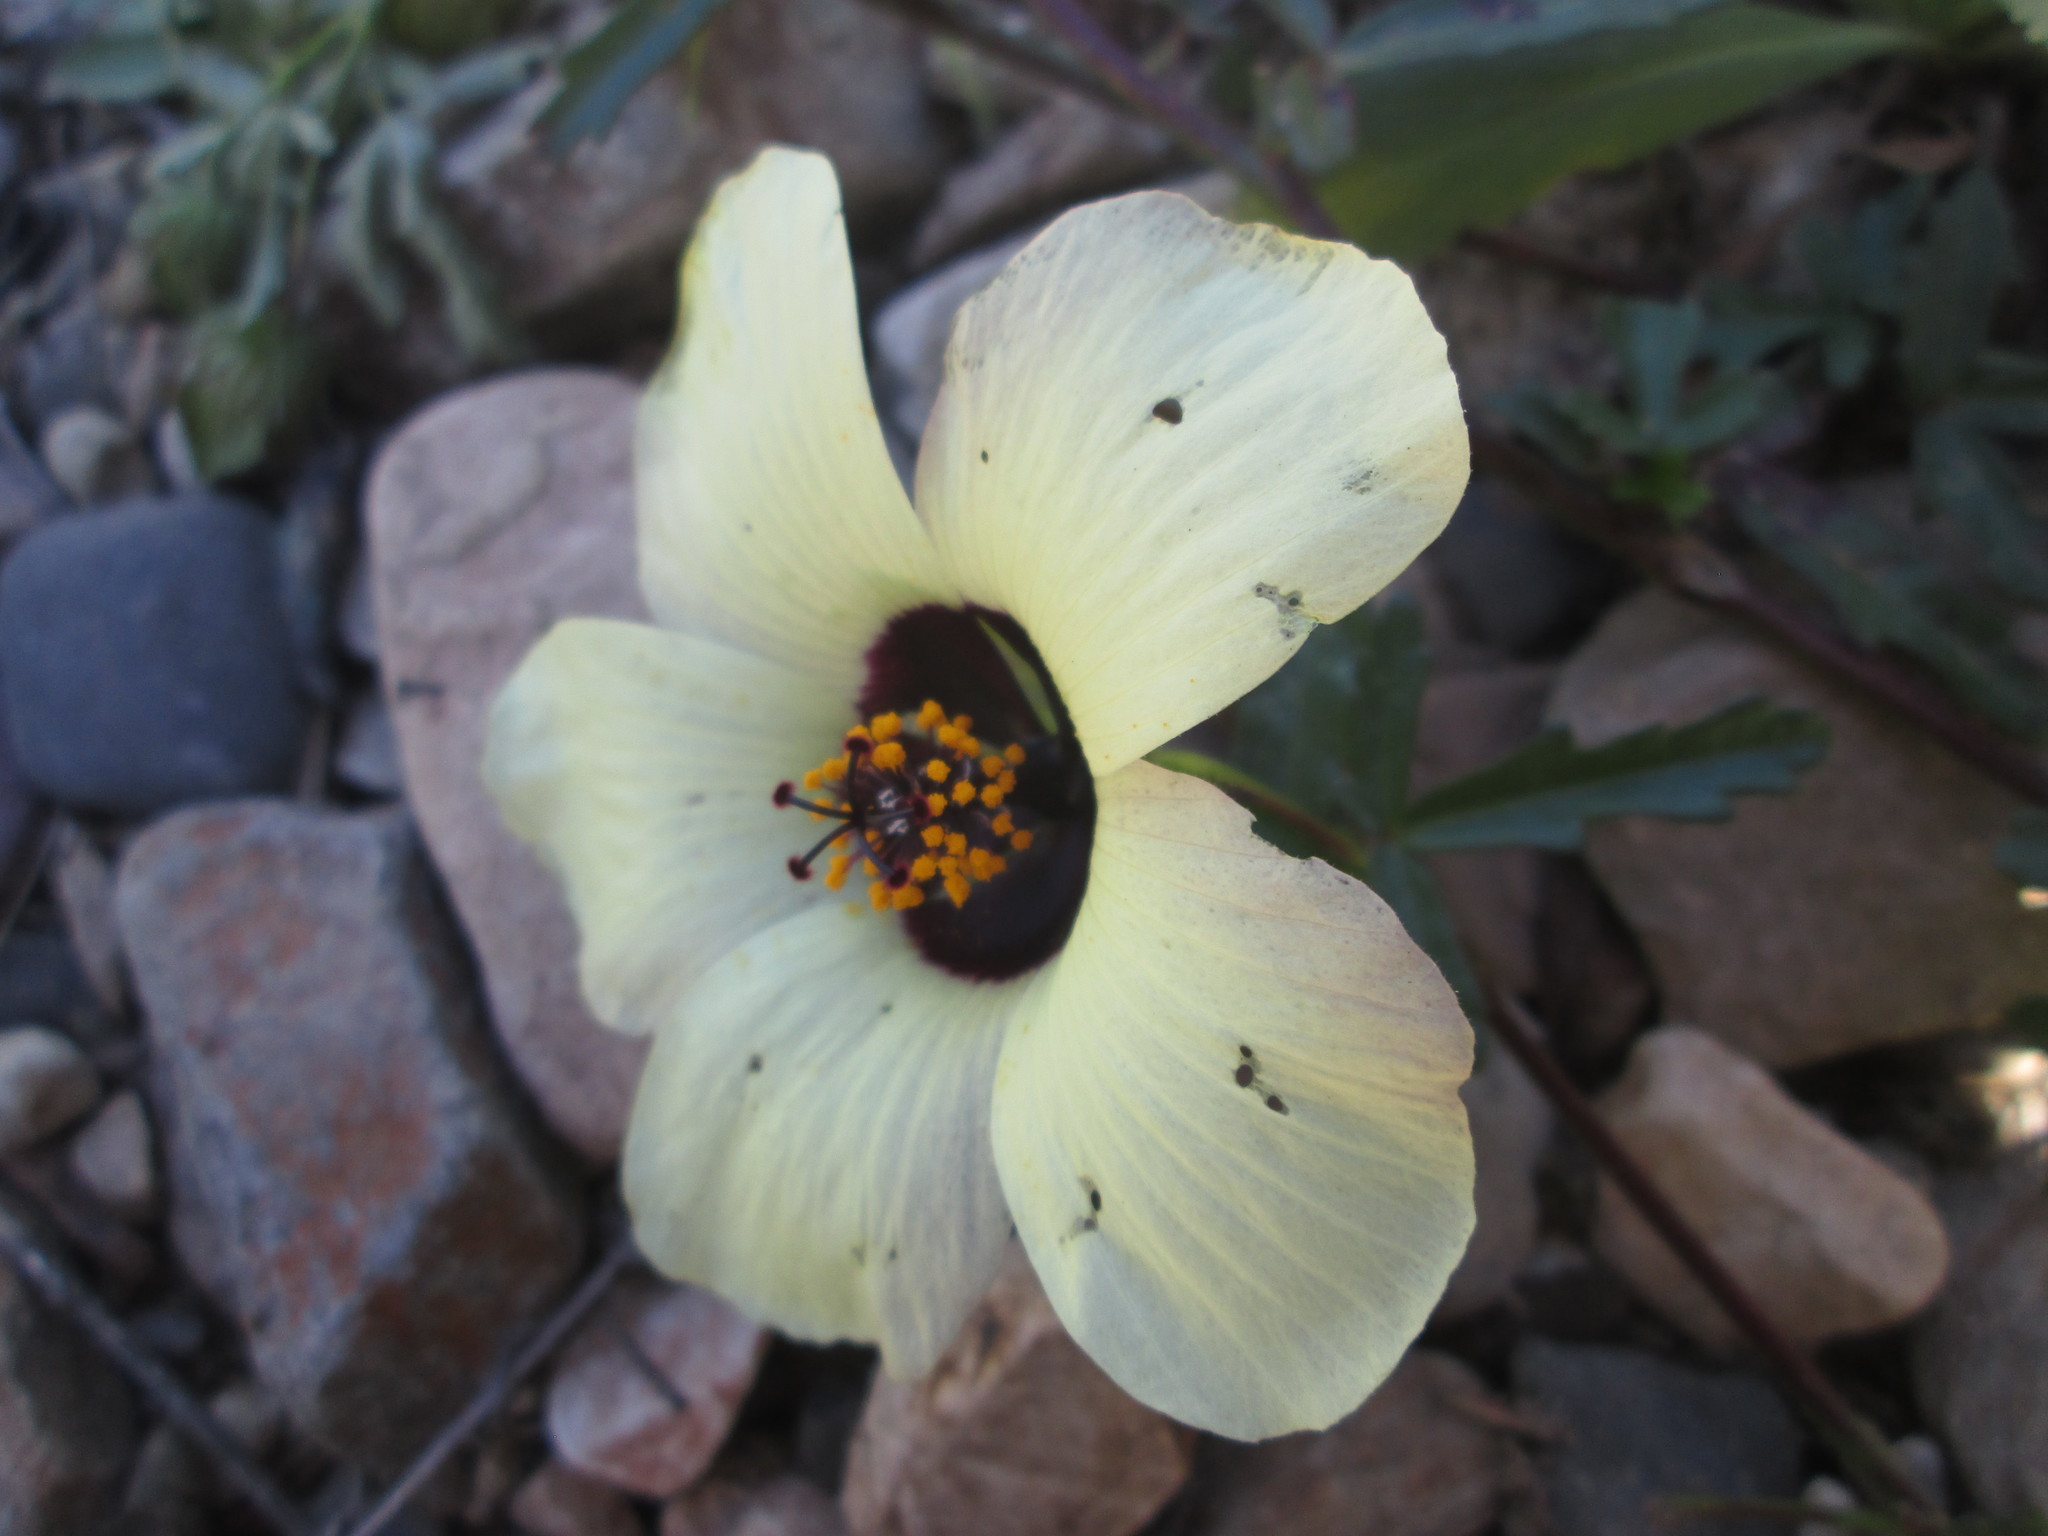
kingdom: Plantae
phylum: Tracheophyta
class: Magnoliopsida
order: Malvales
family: Malvaceae
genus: Hibiscus
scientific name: Hibiscus trionum
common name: Bladder ketmia
